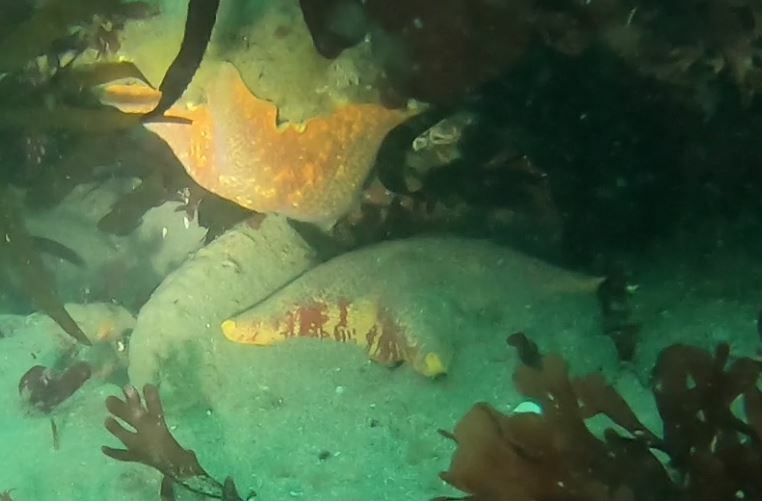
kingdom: Animalia
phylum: Echinodermata
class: Asteroidea
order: Valvatida
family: Asterinidae
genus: Patiria
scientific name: Patiria miniata
